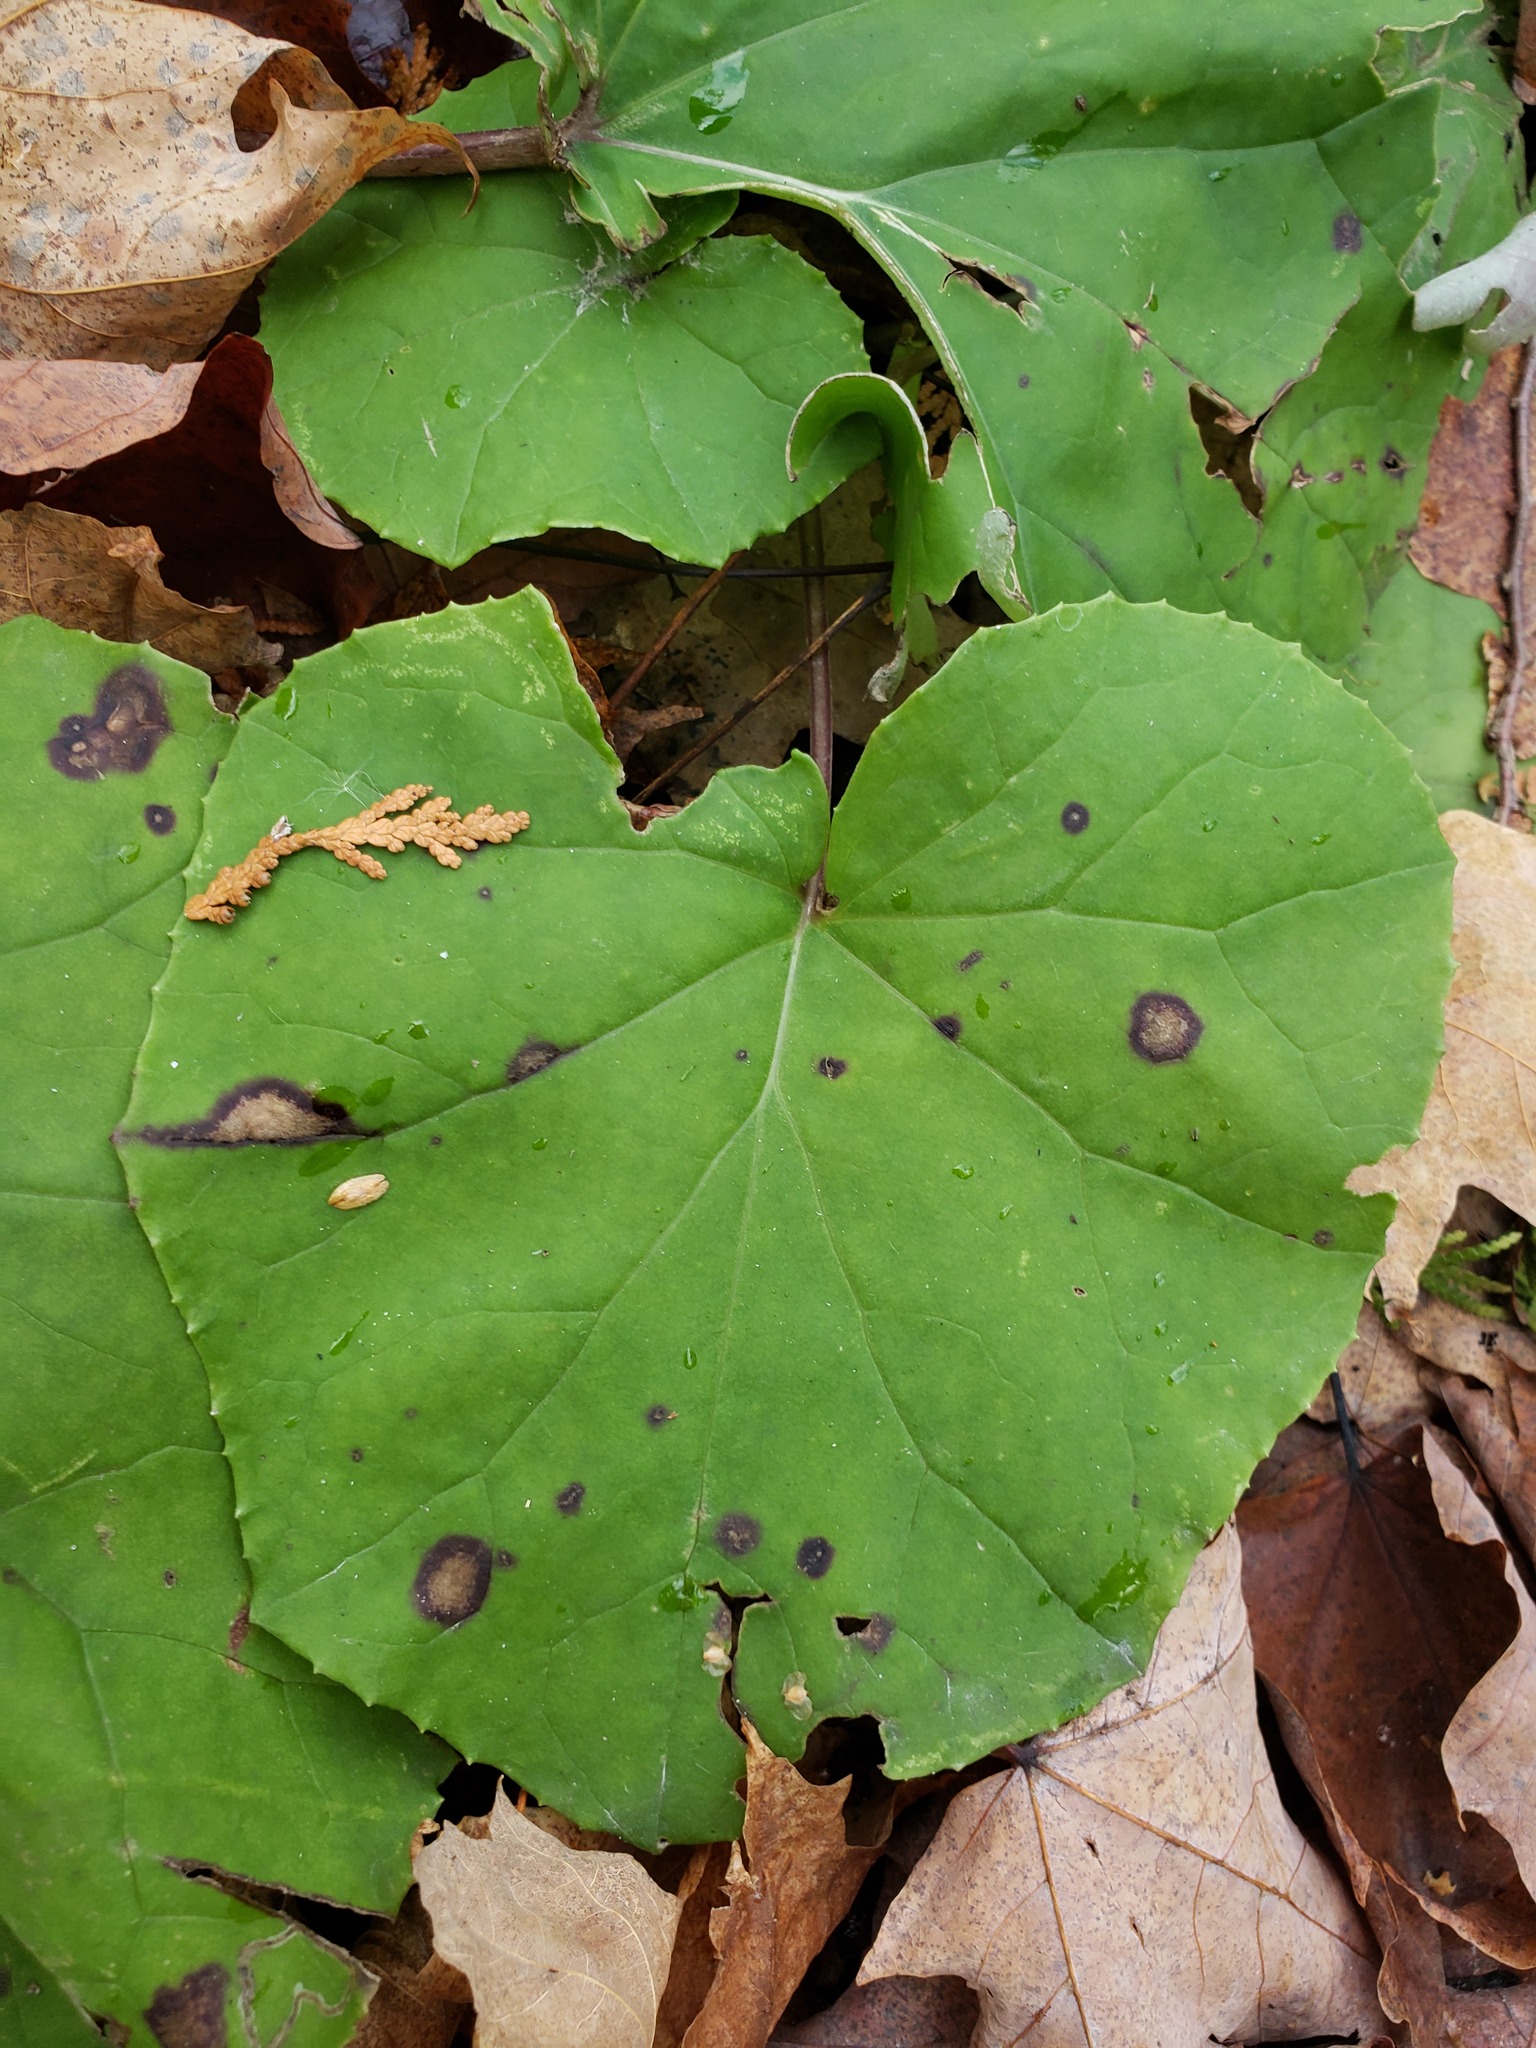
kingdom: Plantae
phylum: Tracheophyta
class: Magnoliopsida
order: Asterales
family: Asteraceae
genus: Tussilago
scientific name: Tussilago farfara
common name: Coltsfoot
